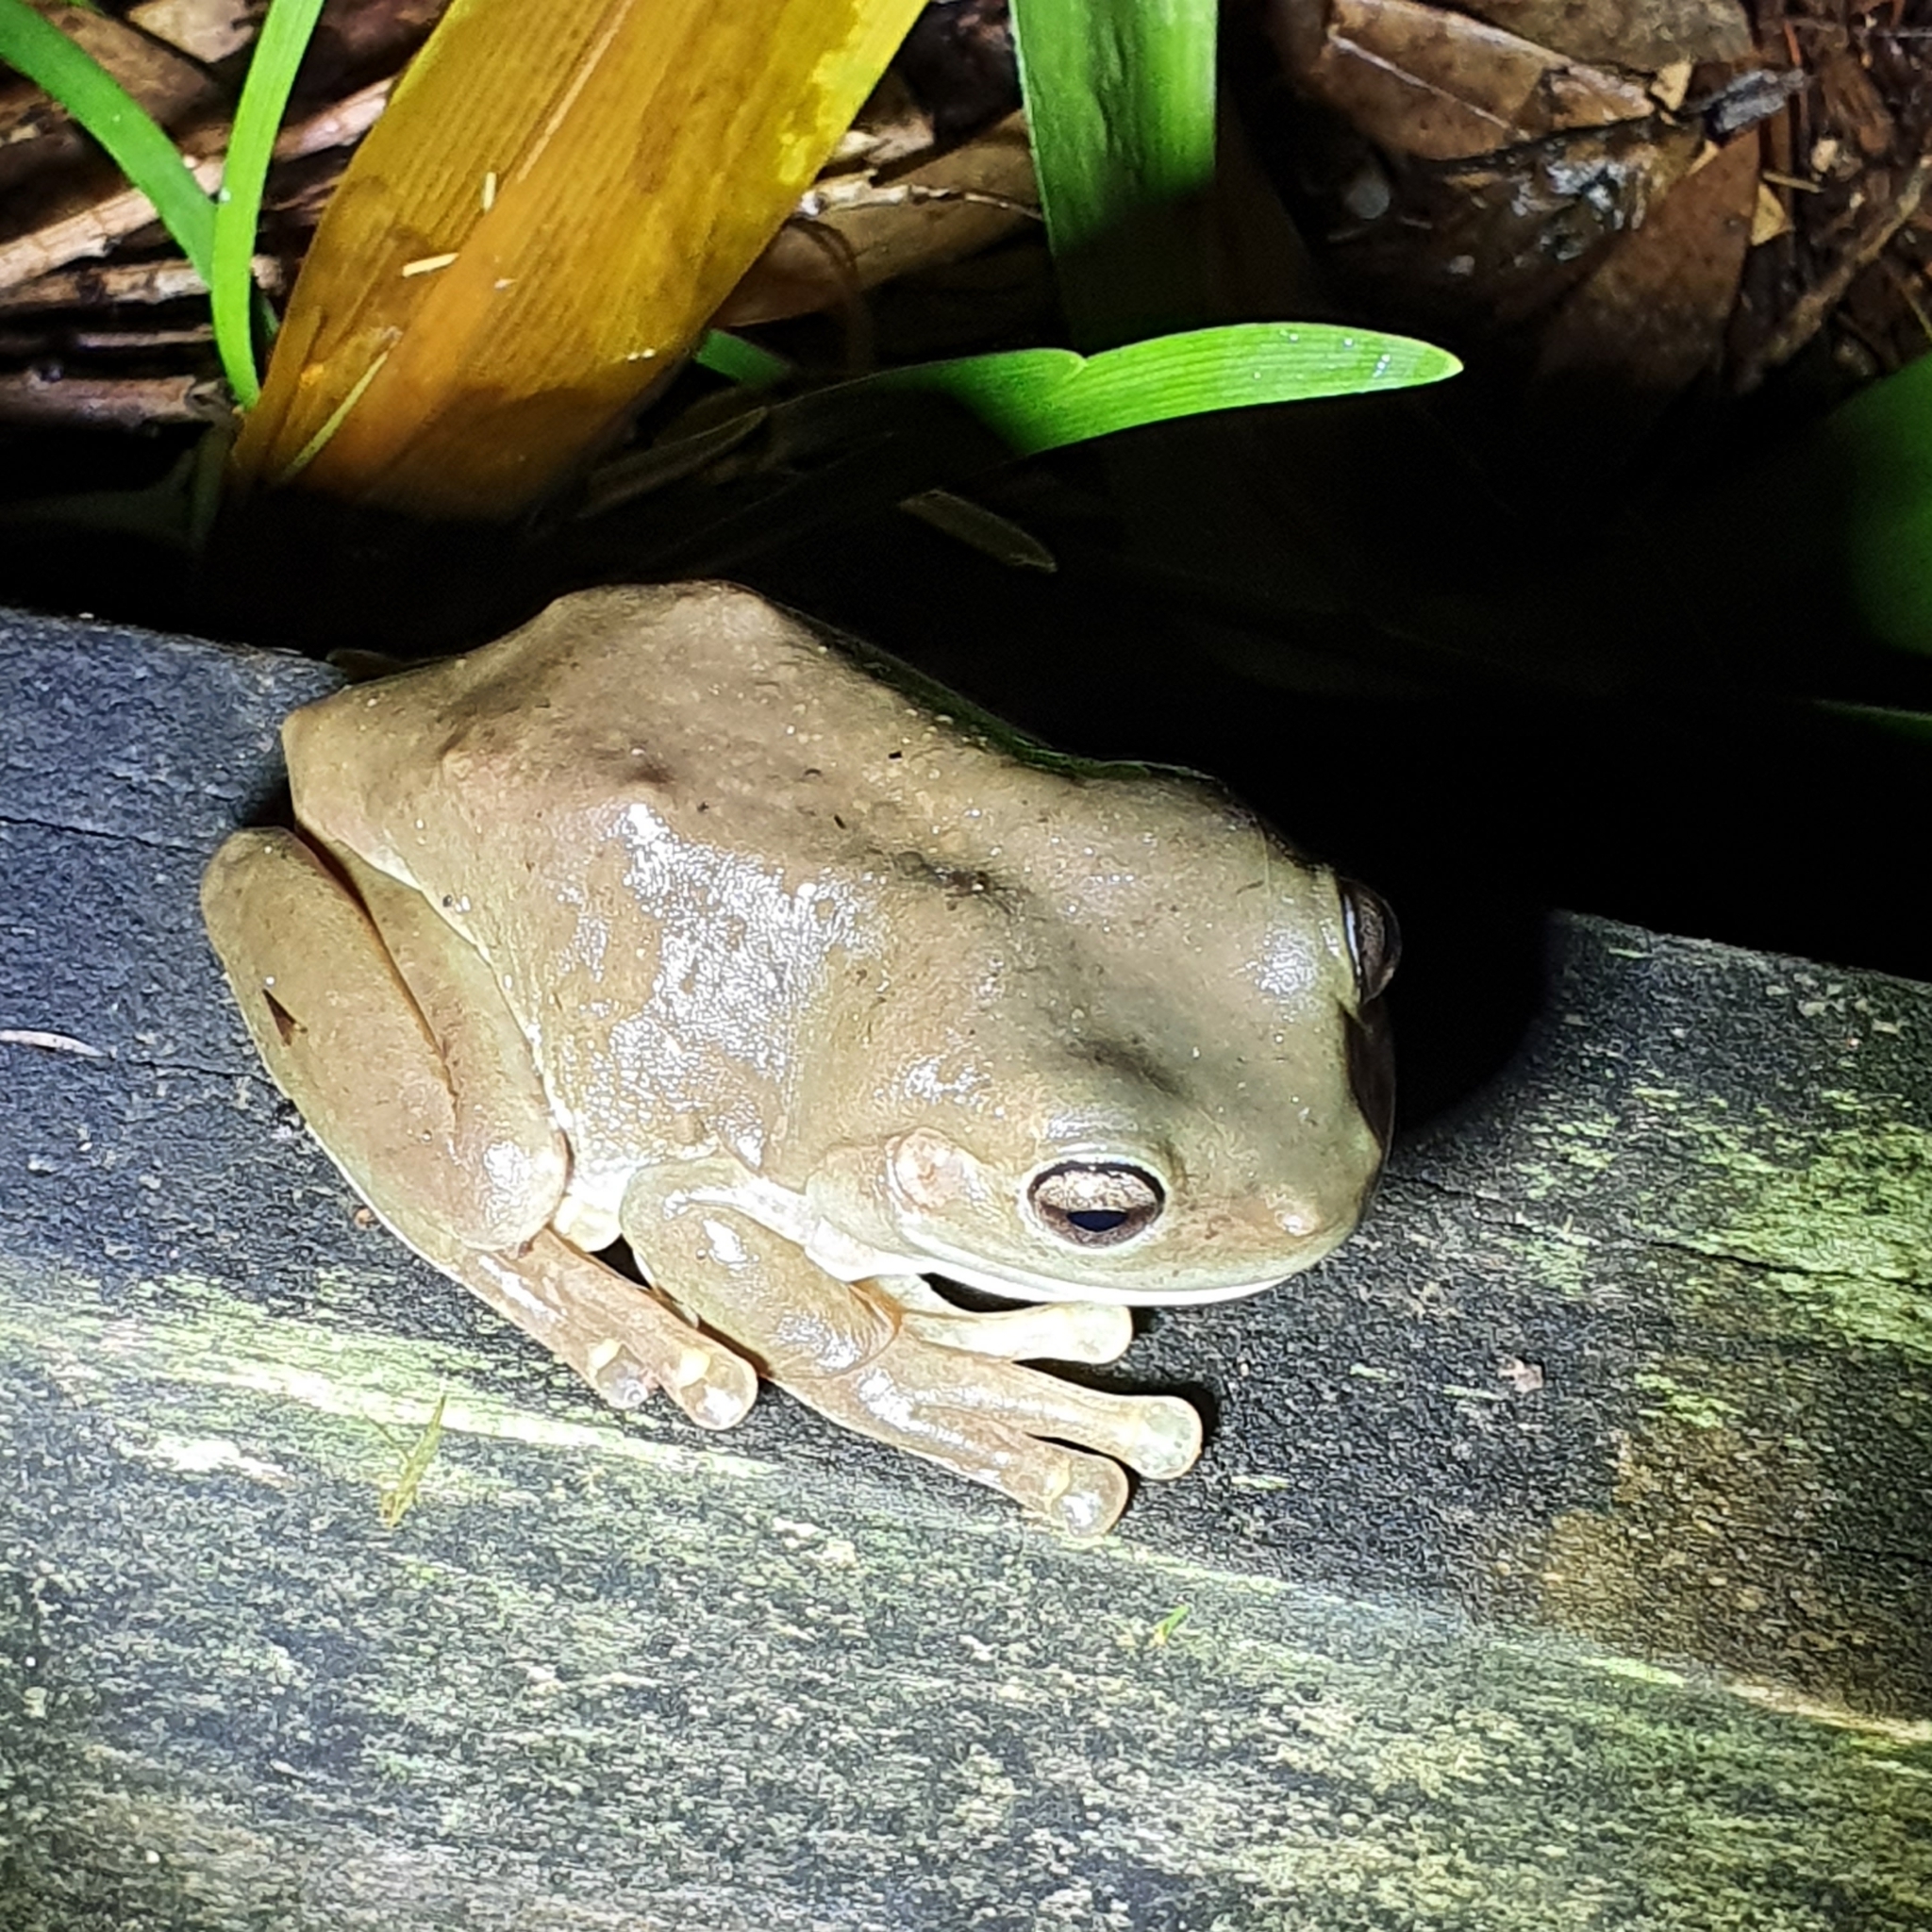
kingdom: Animalia
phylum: Chordata
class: Amphibia
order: Anura
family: Pelodryadidae
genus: Ranoidea
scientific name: Ranoidea caerulea
